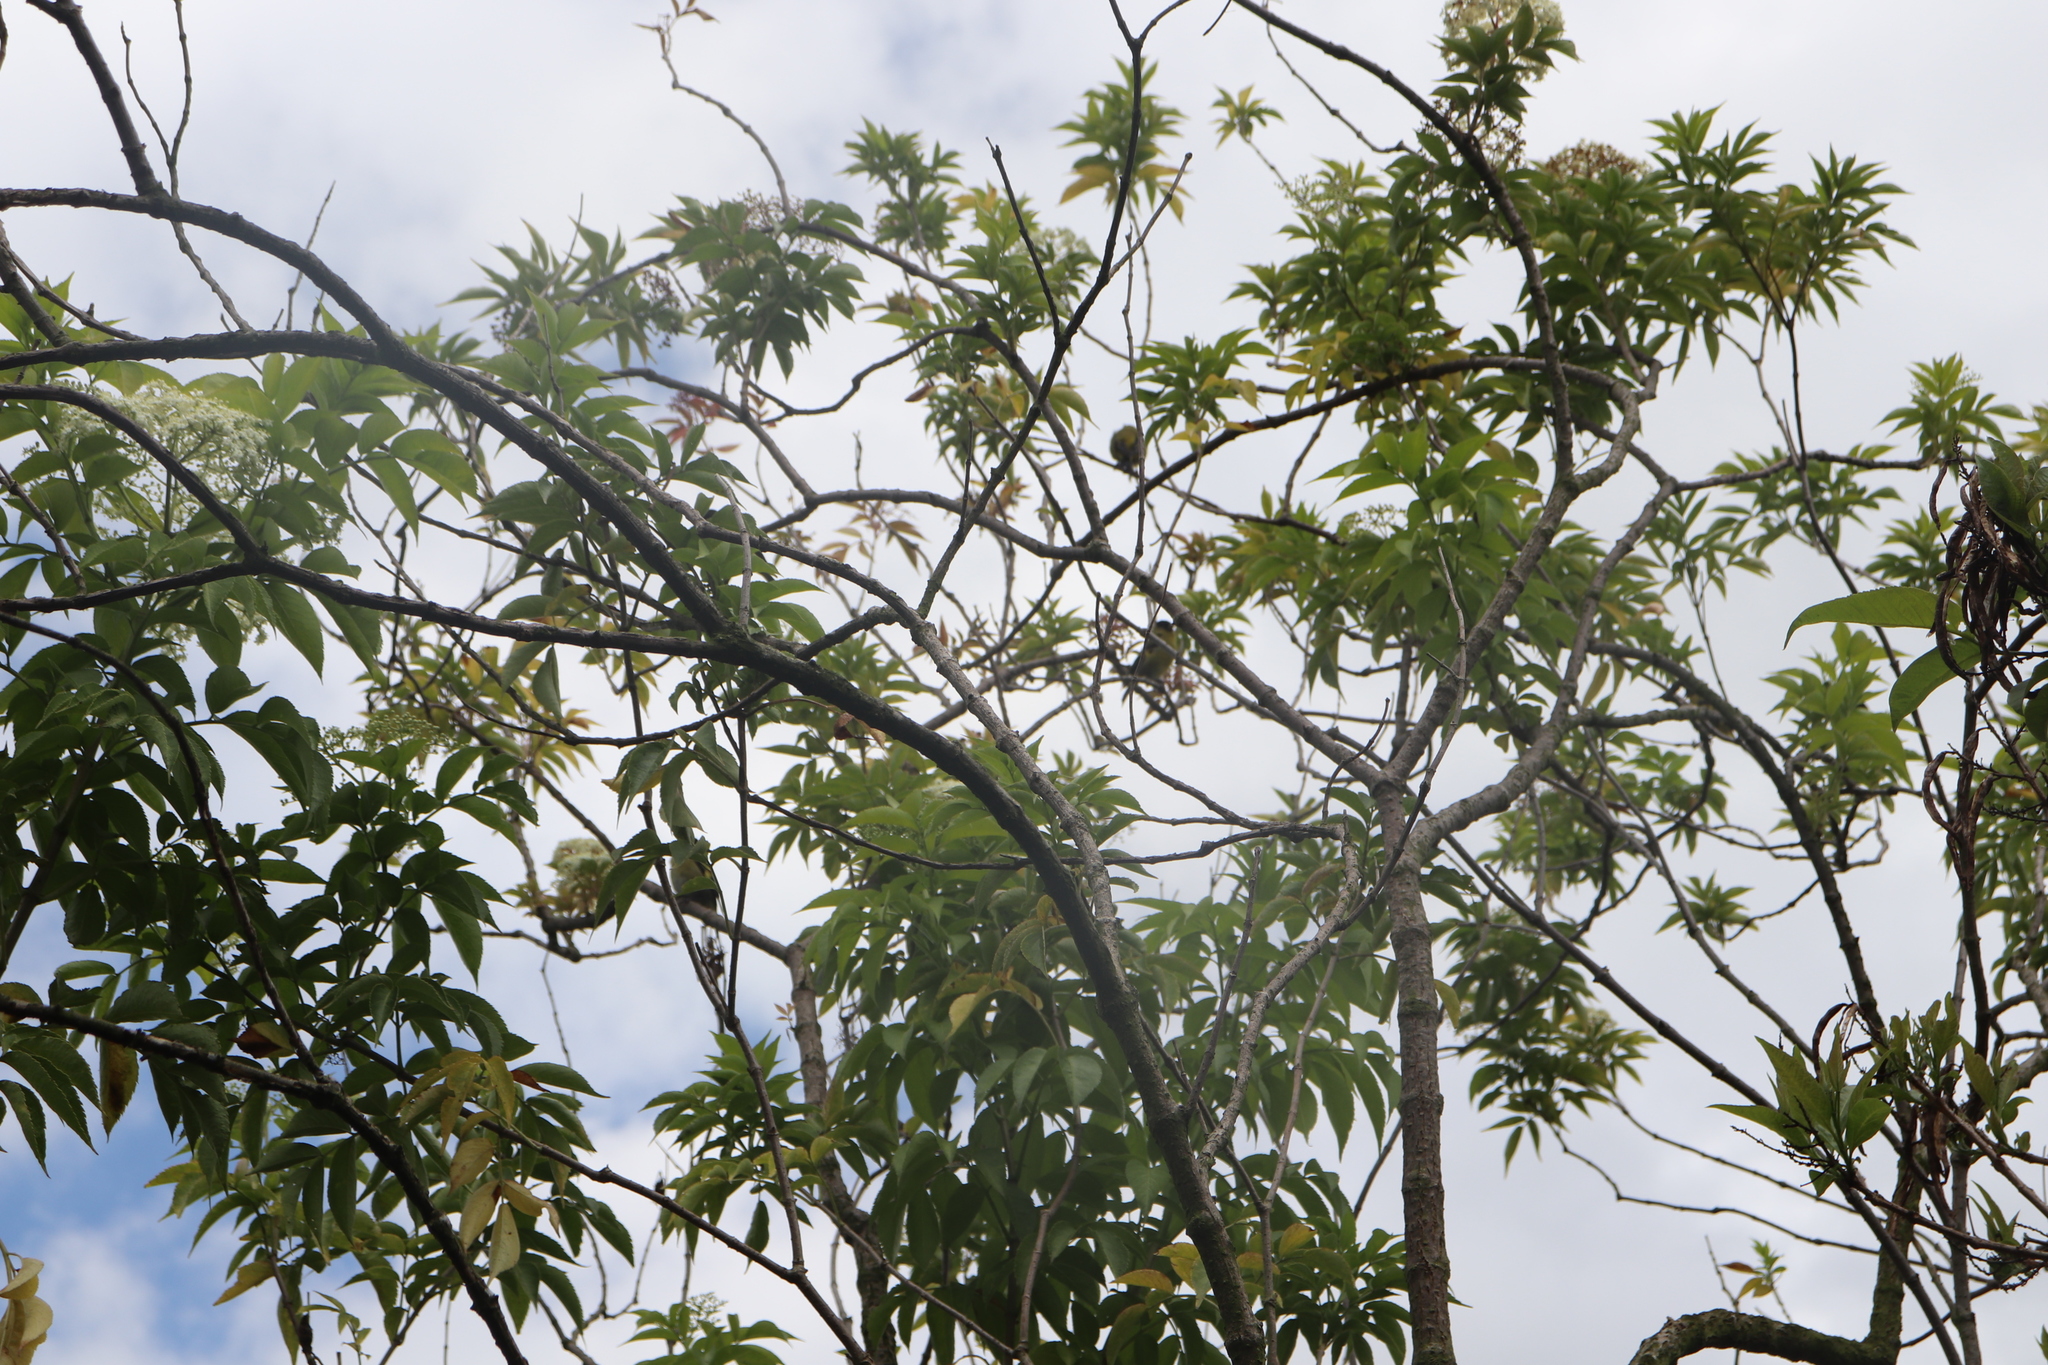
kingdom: Animalia
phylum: Chordata
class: Aves
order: Passeriformes
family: Fringillidae
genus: Spinus
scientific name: Spinus spinescens
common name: Andean siskin
